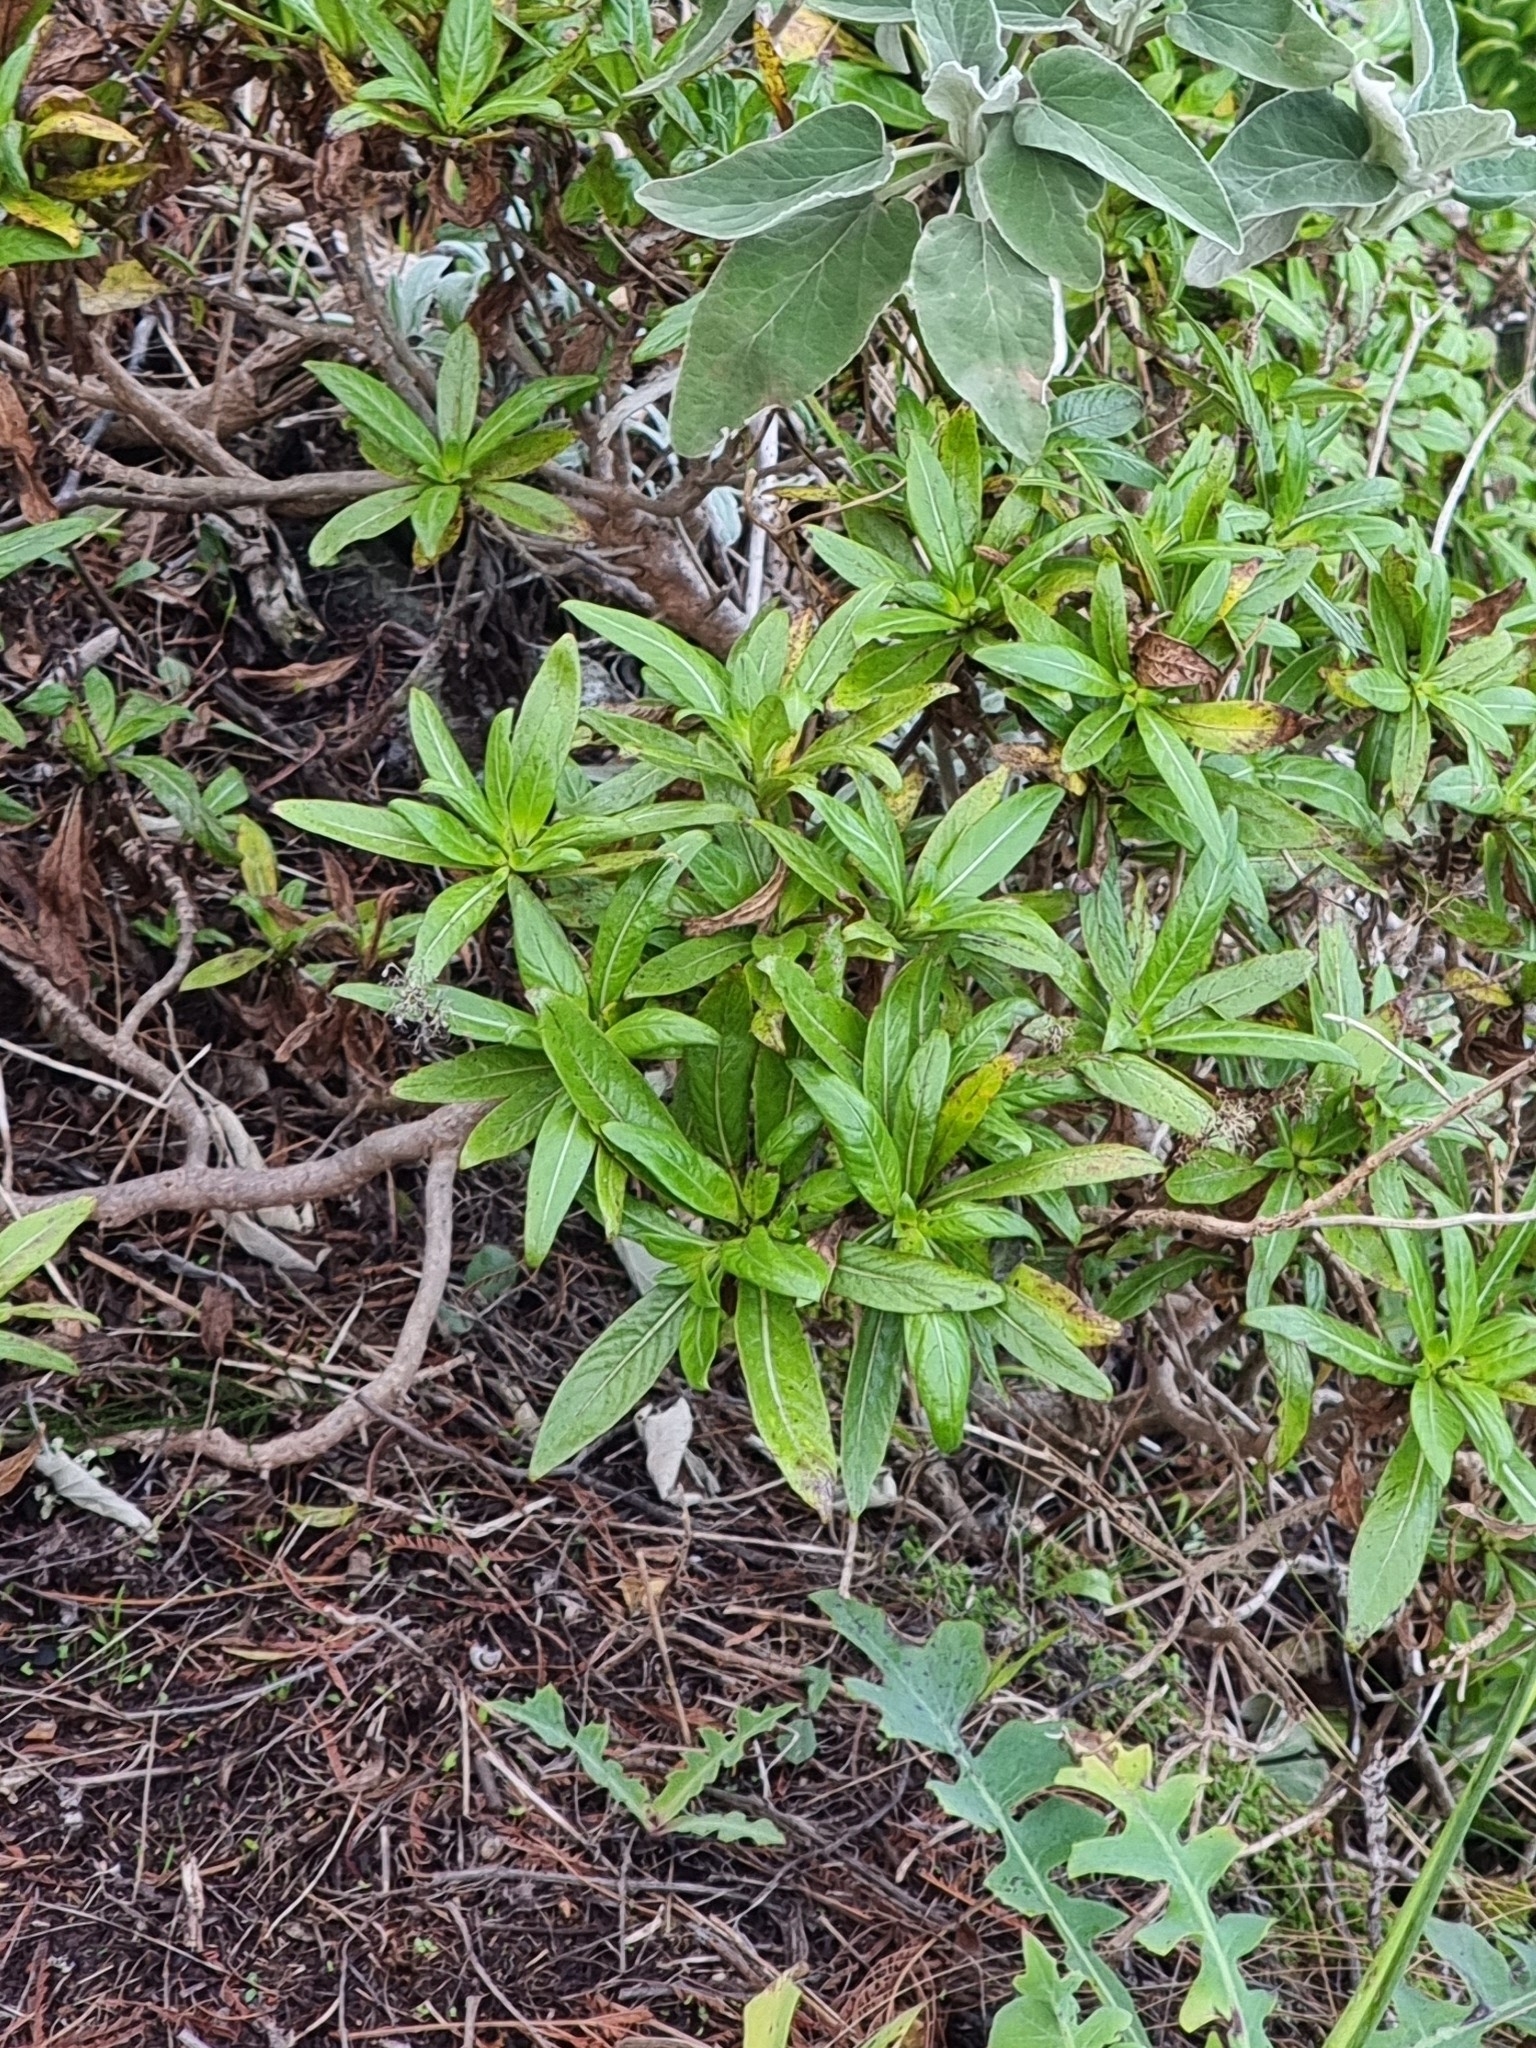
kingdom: Plantae
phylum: Tracheophyta
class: Magnoliopsida
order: Gentianales
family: Rubiaceae
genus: Phyllis
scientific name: Phyllis nobla
